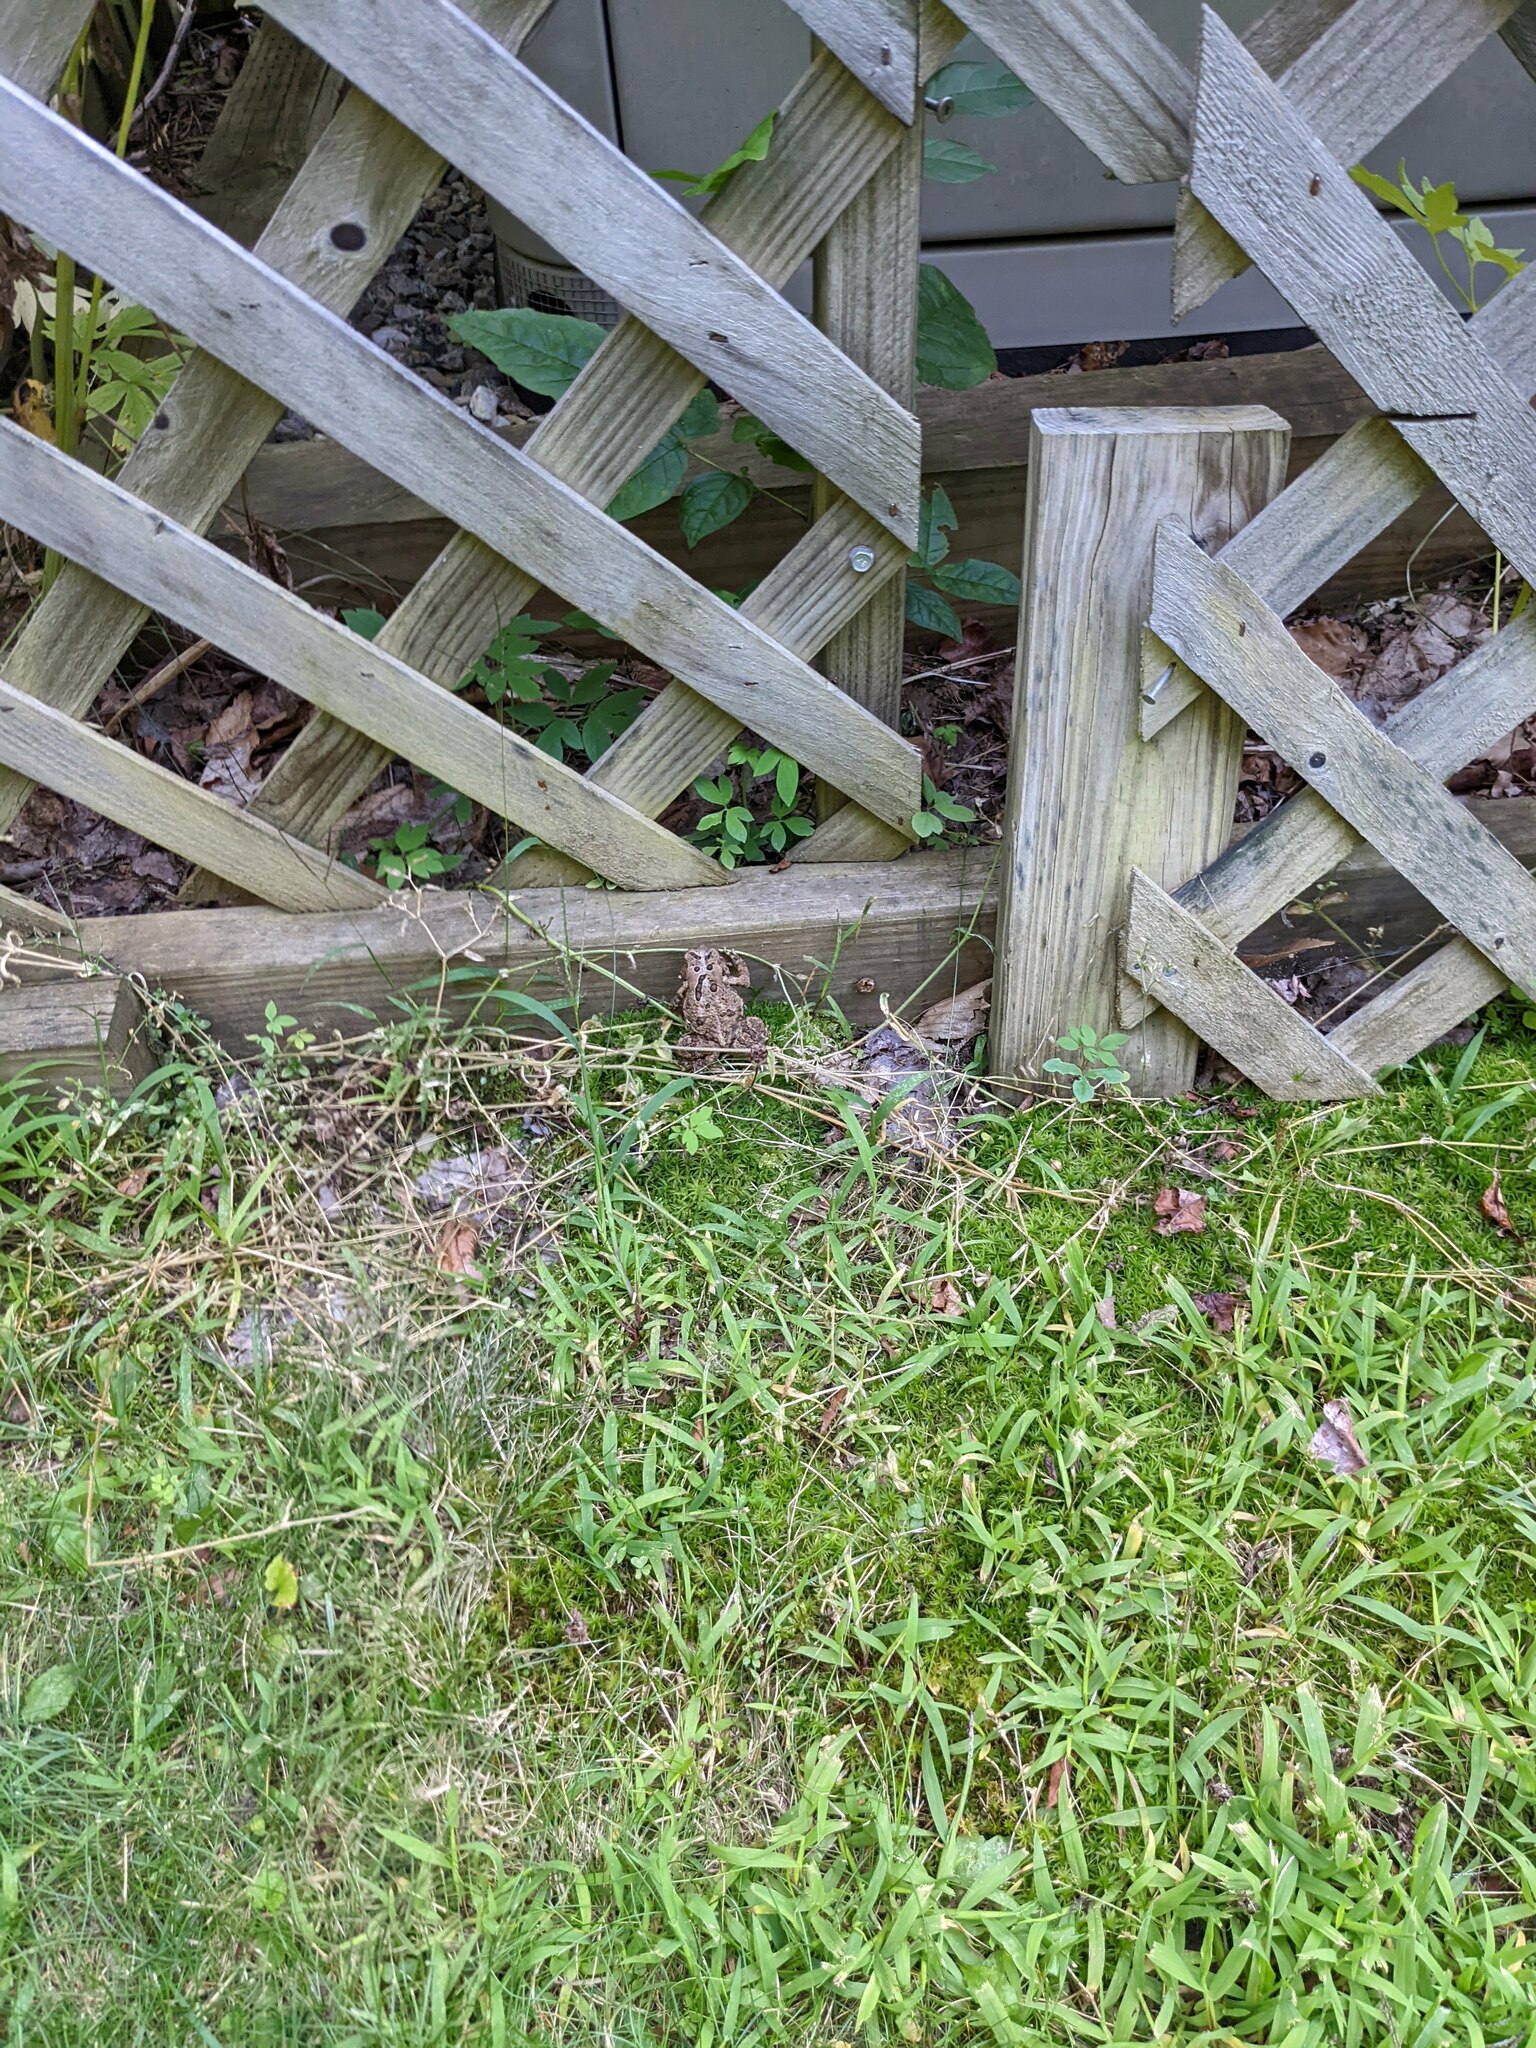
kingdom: Animalia
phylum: Chordata
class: Amphibia
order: Anura
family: Bufonidae
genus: Anaxyrus
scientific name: Anaxyrus americanus
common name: American toad
